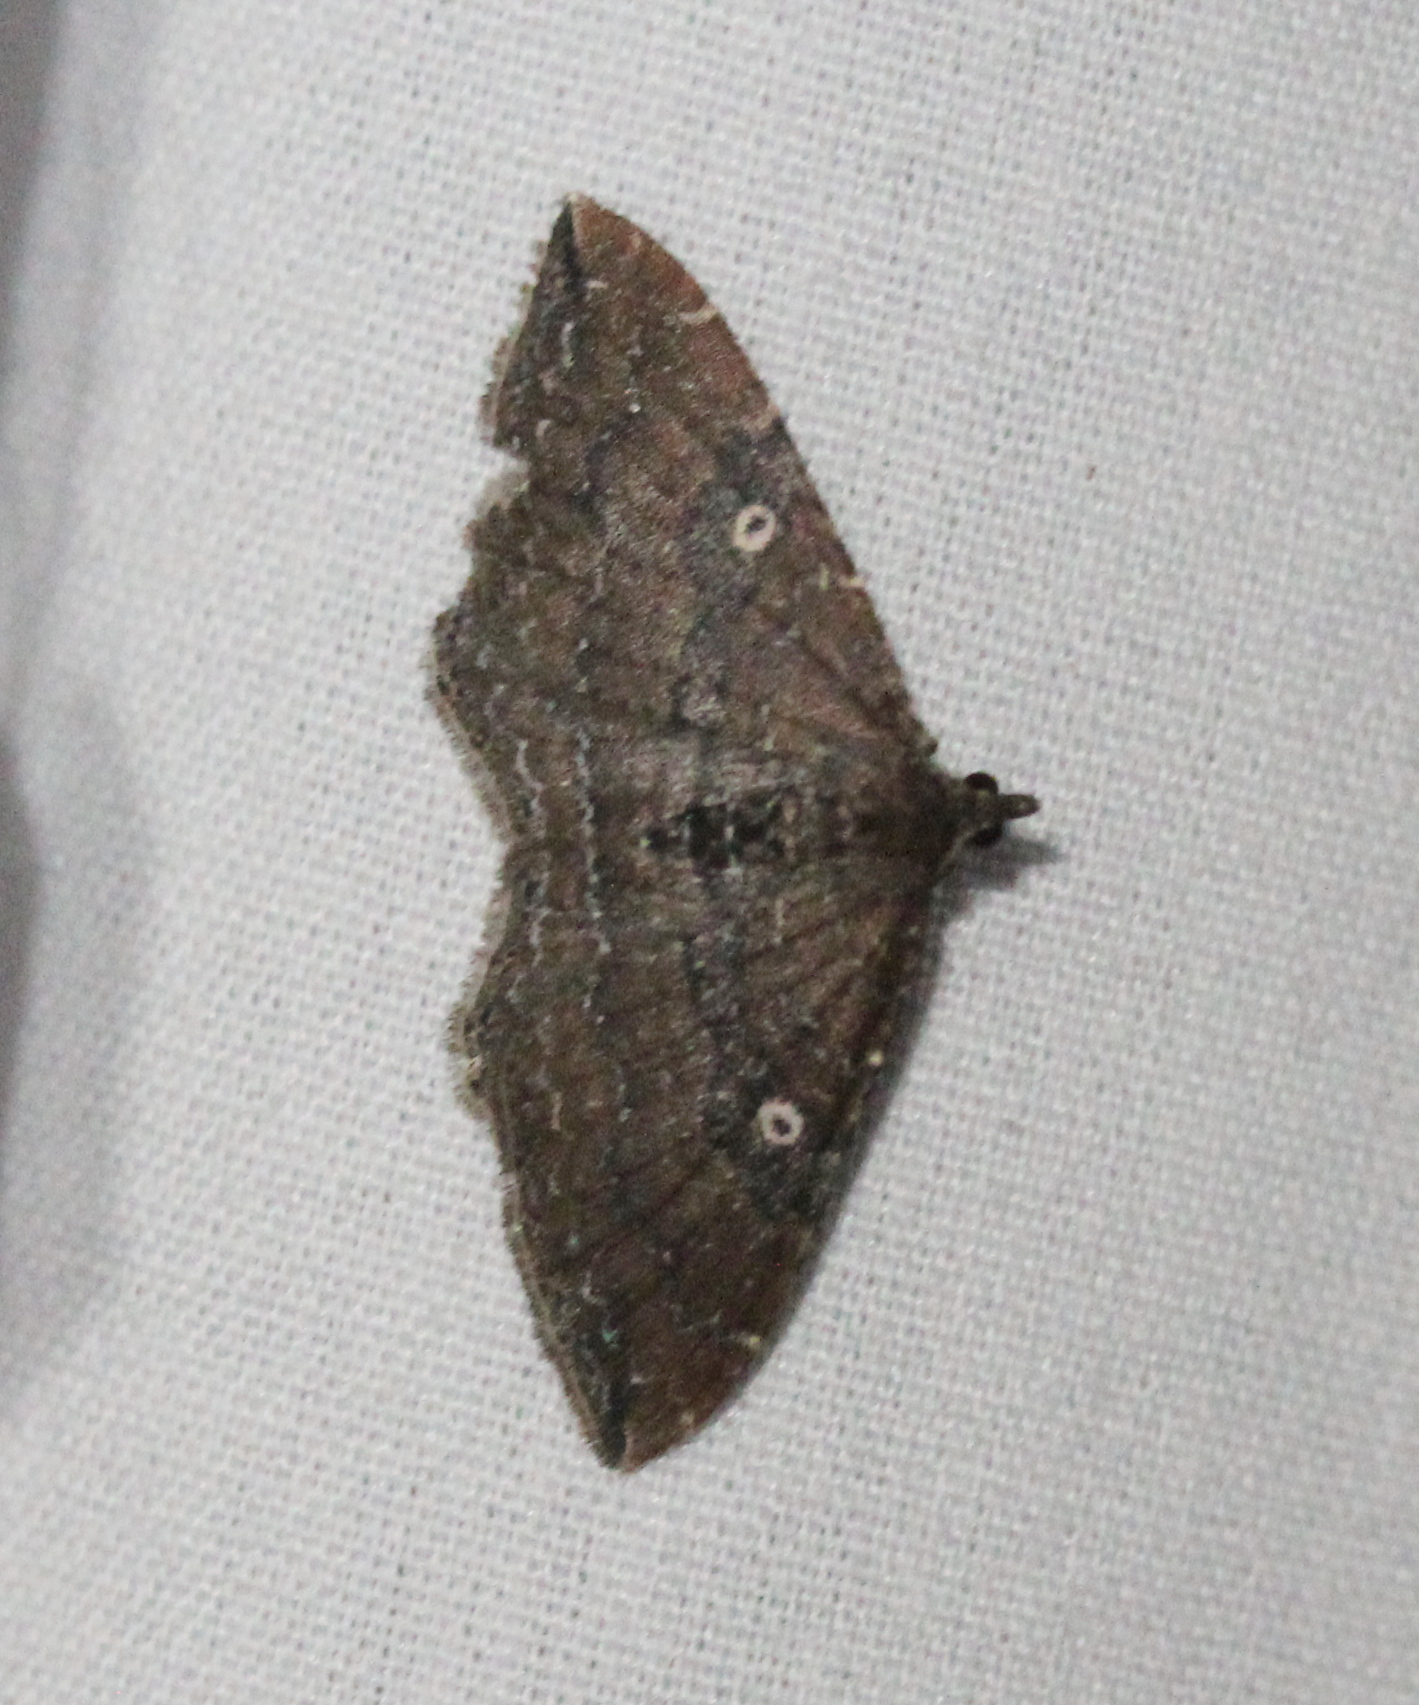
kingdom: Animalia
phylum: Arthropoda
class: Insecta
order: Lepidoptera
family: Geometridae
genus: Orthonama
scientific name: Orthonama obstipata
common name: The gem
